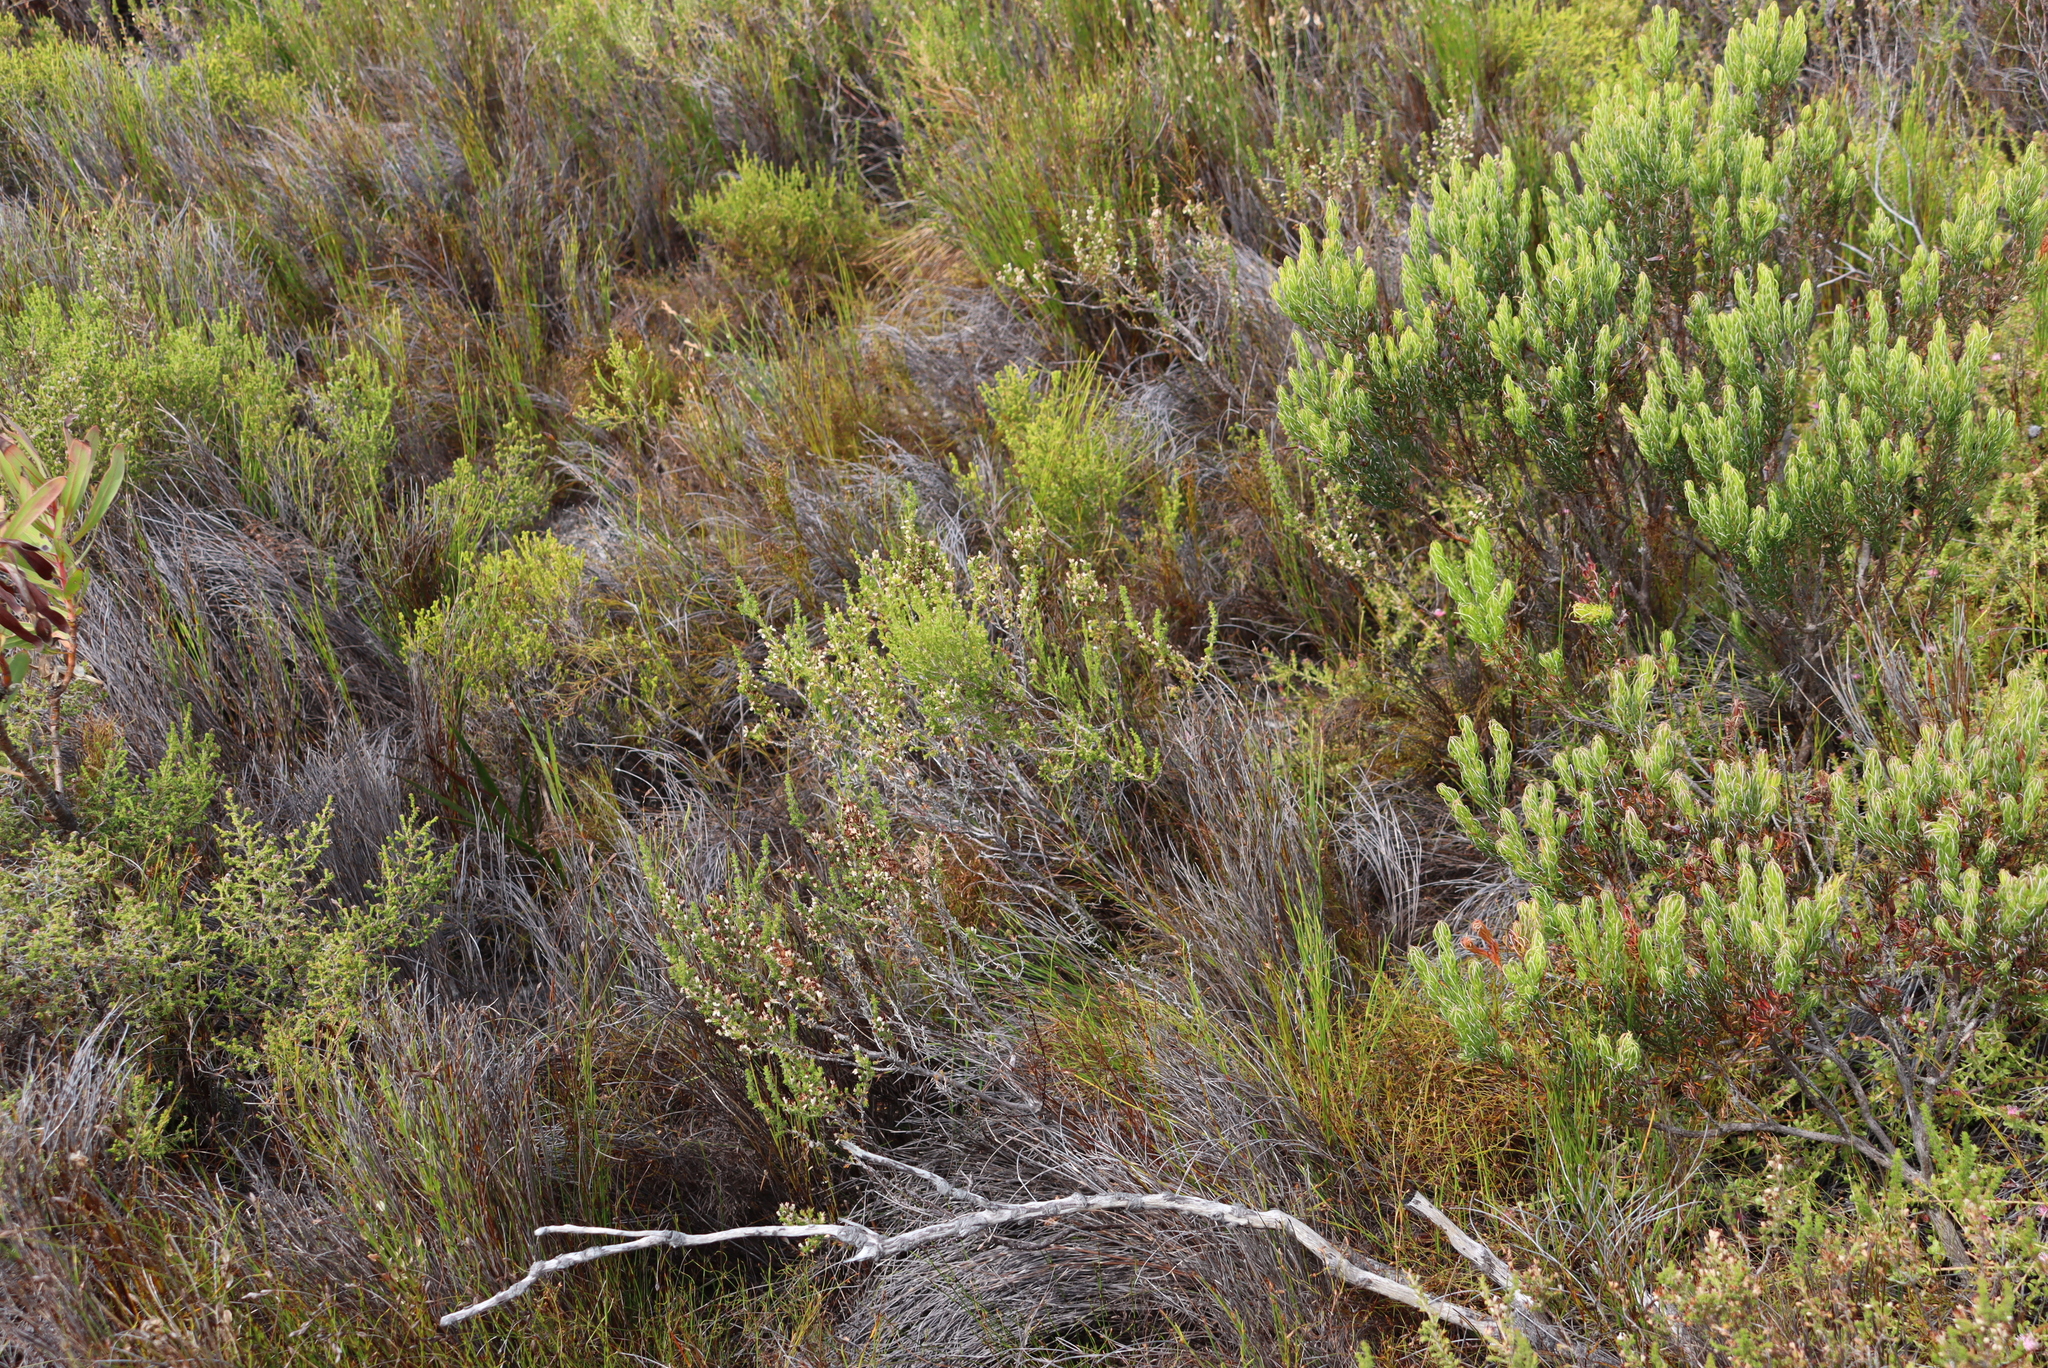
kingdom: Plantae
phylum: Tracheophyta
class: Magnoliopsida
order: Ericales
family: Ericaceae
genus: Erica
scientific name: Erica imbricata
